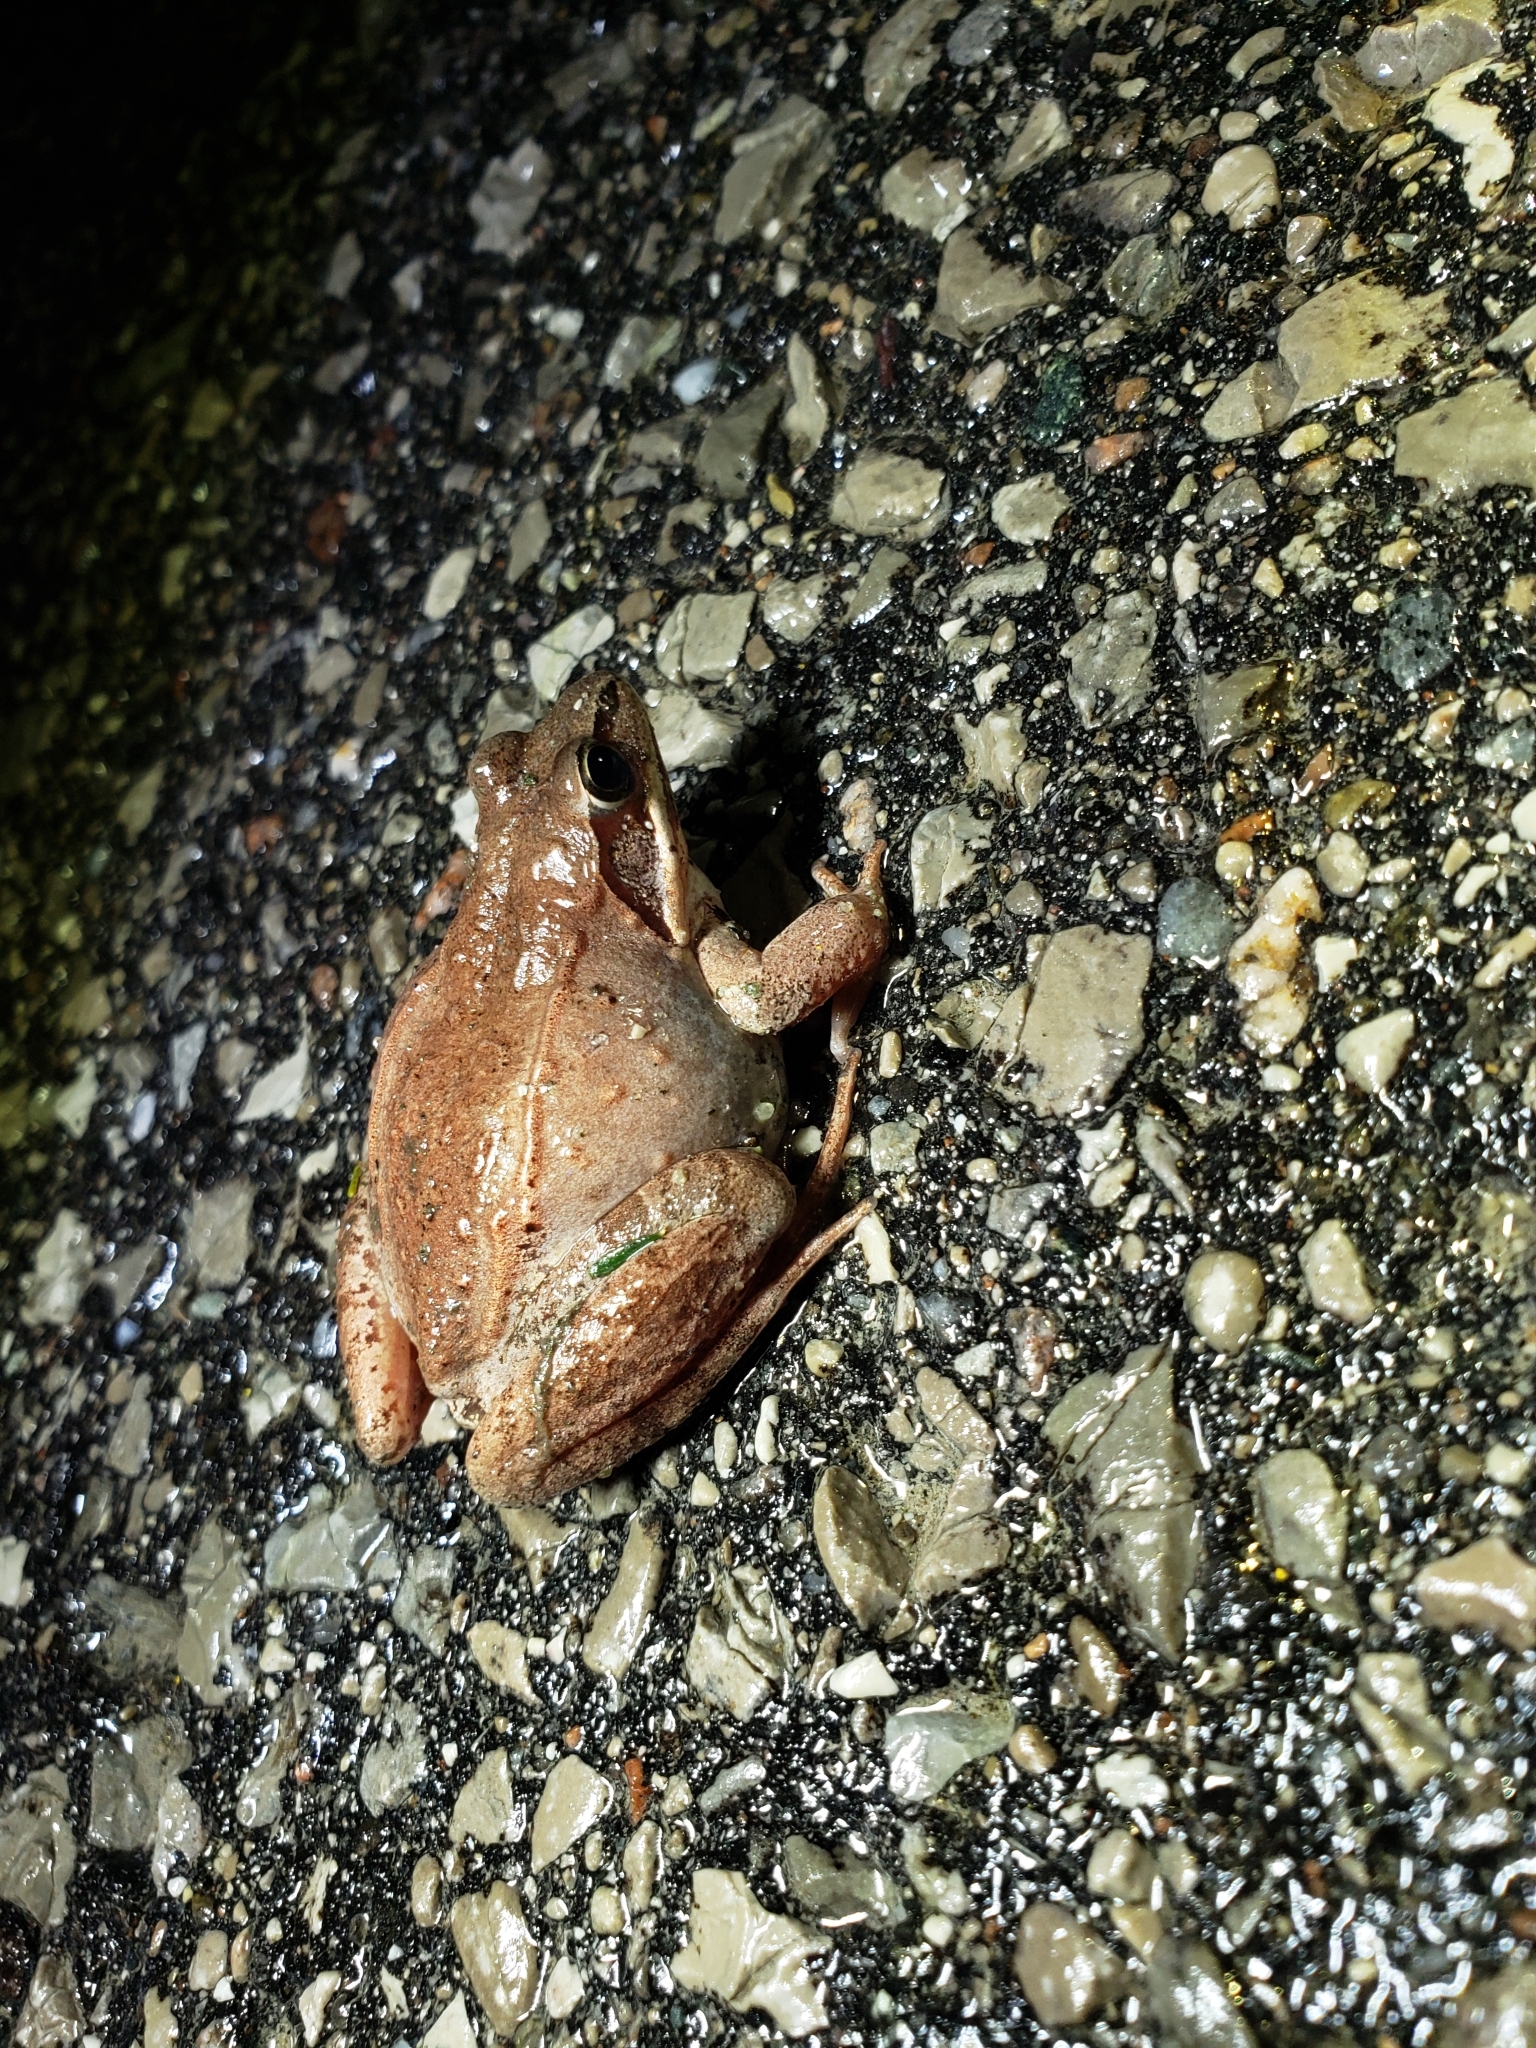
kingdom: Animalia
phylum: Chordata
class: Amphibia
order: Anura
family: Ranidae
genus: Lithobates
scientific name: Lithobates sylvaticus
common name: Wood frog
